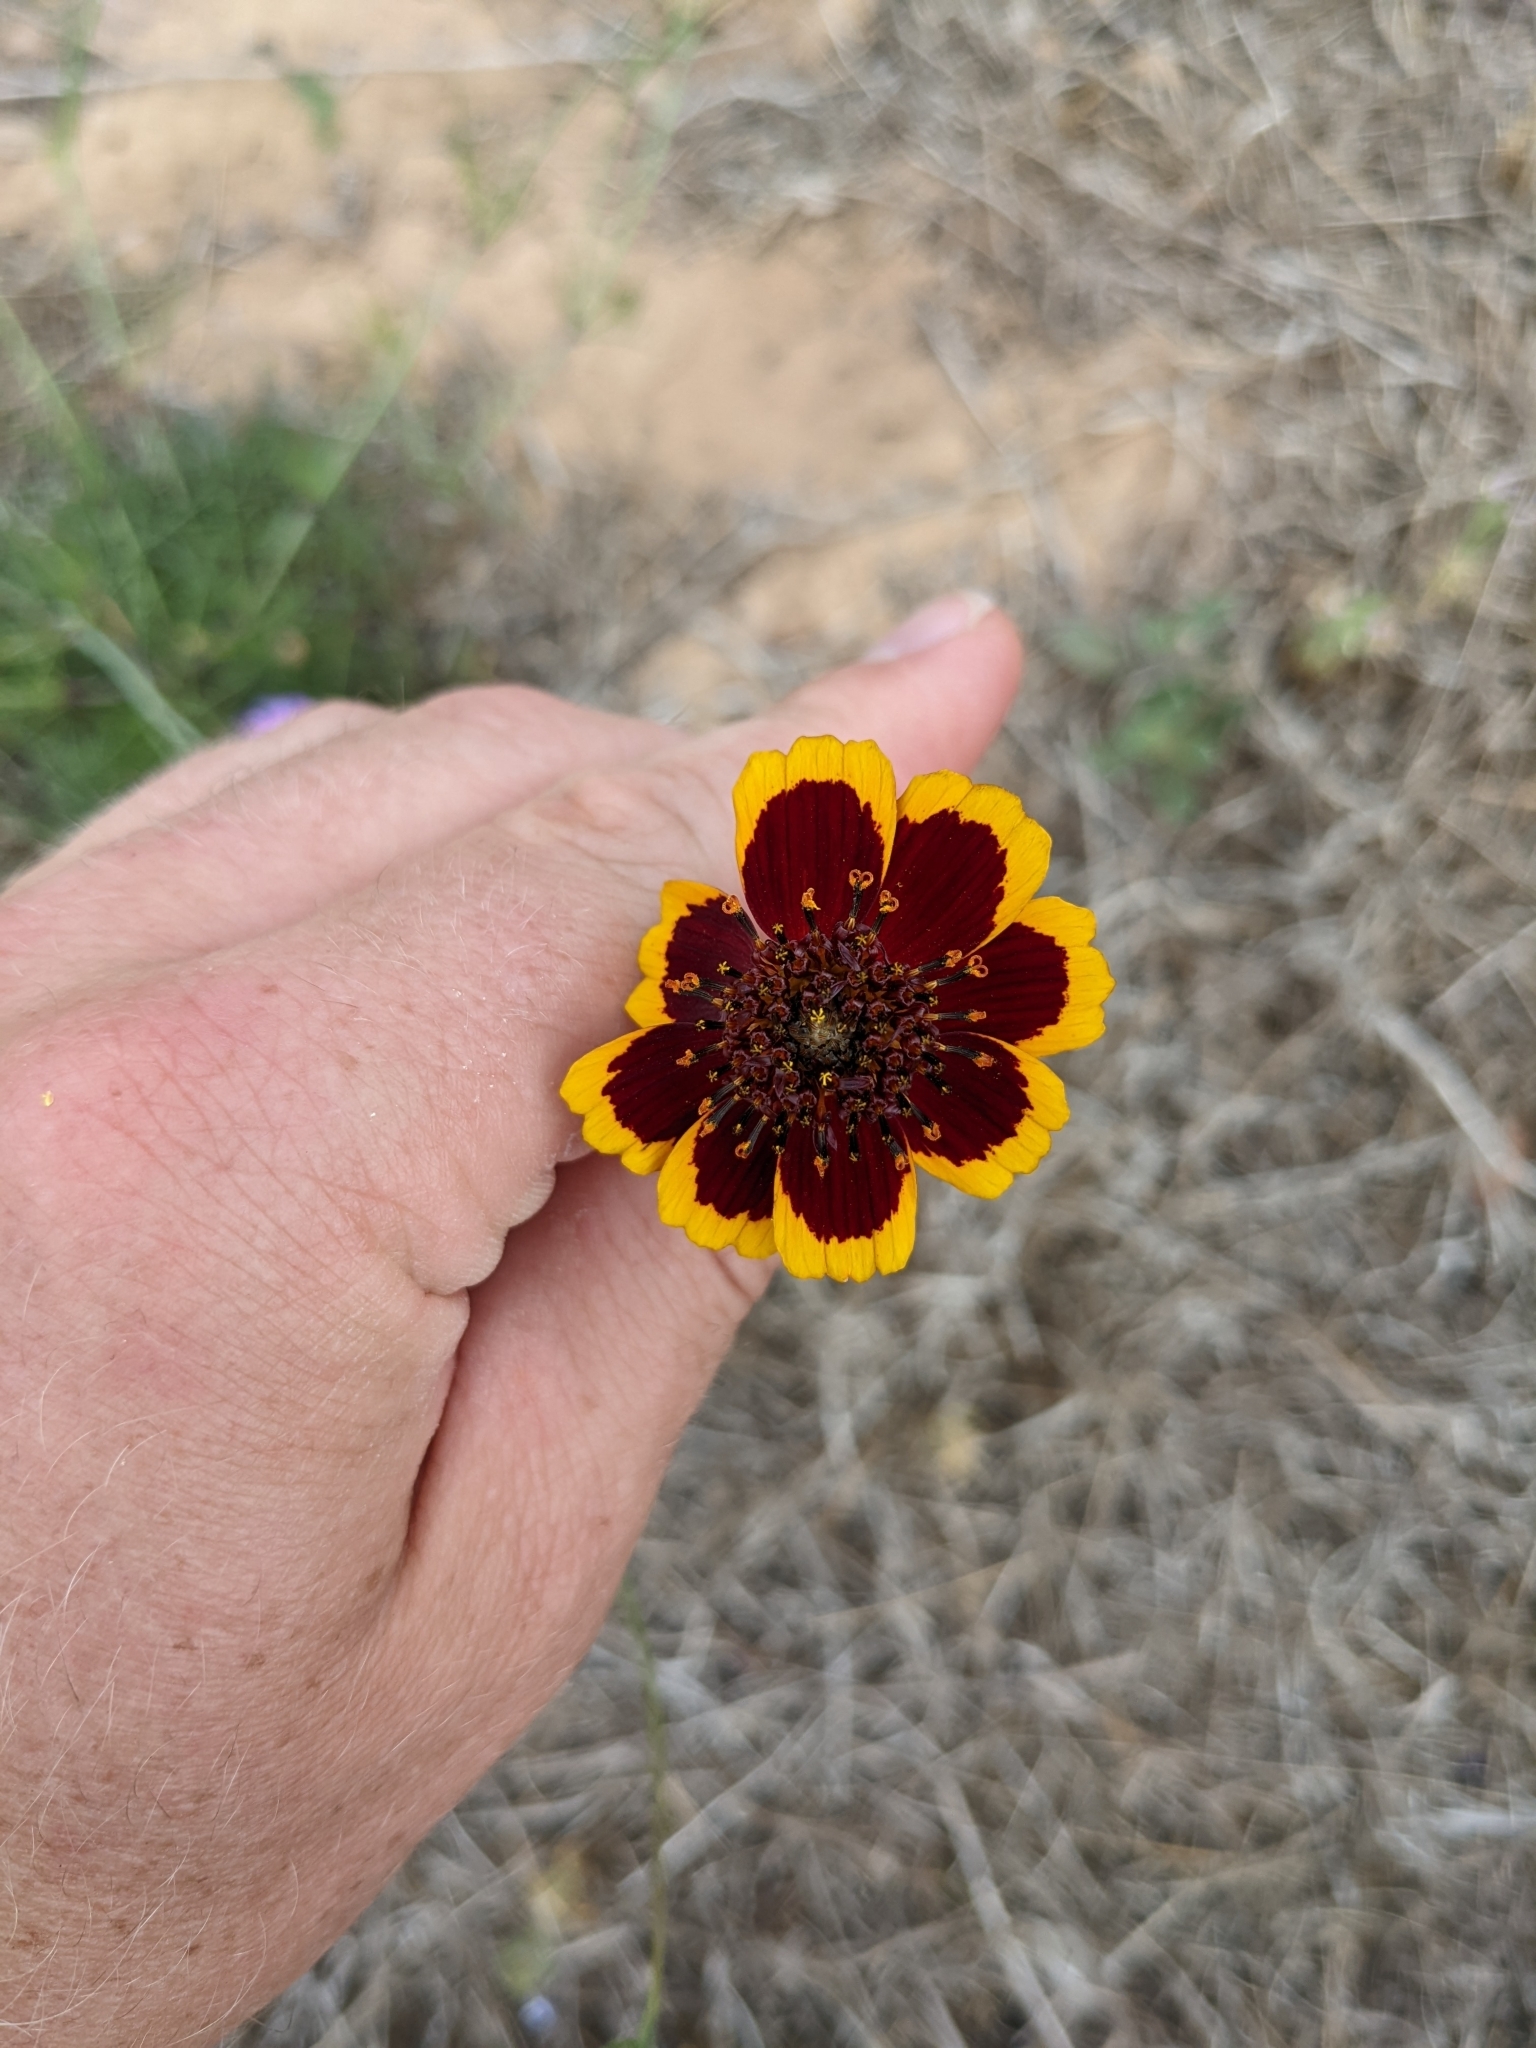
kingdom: Plantae
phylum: Tracheophyta
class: Magnoliopsida
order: Asterales
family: Asteraceae
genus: Thelesperma
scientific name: Thelesperma burridgeanum
